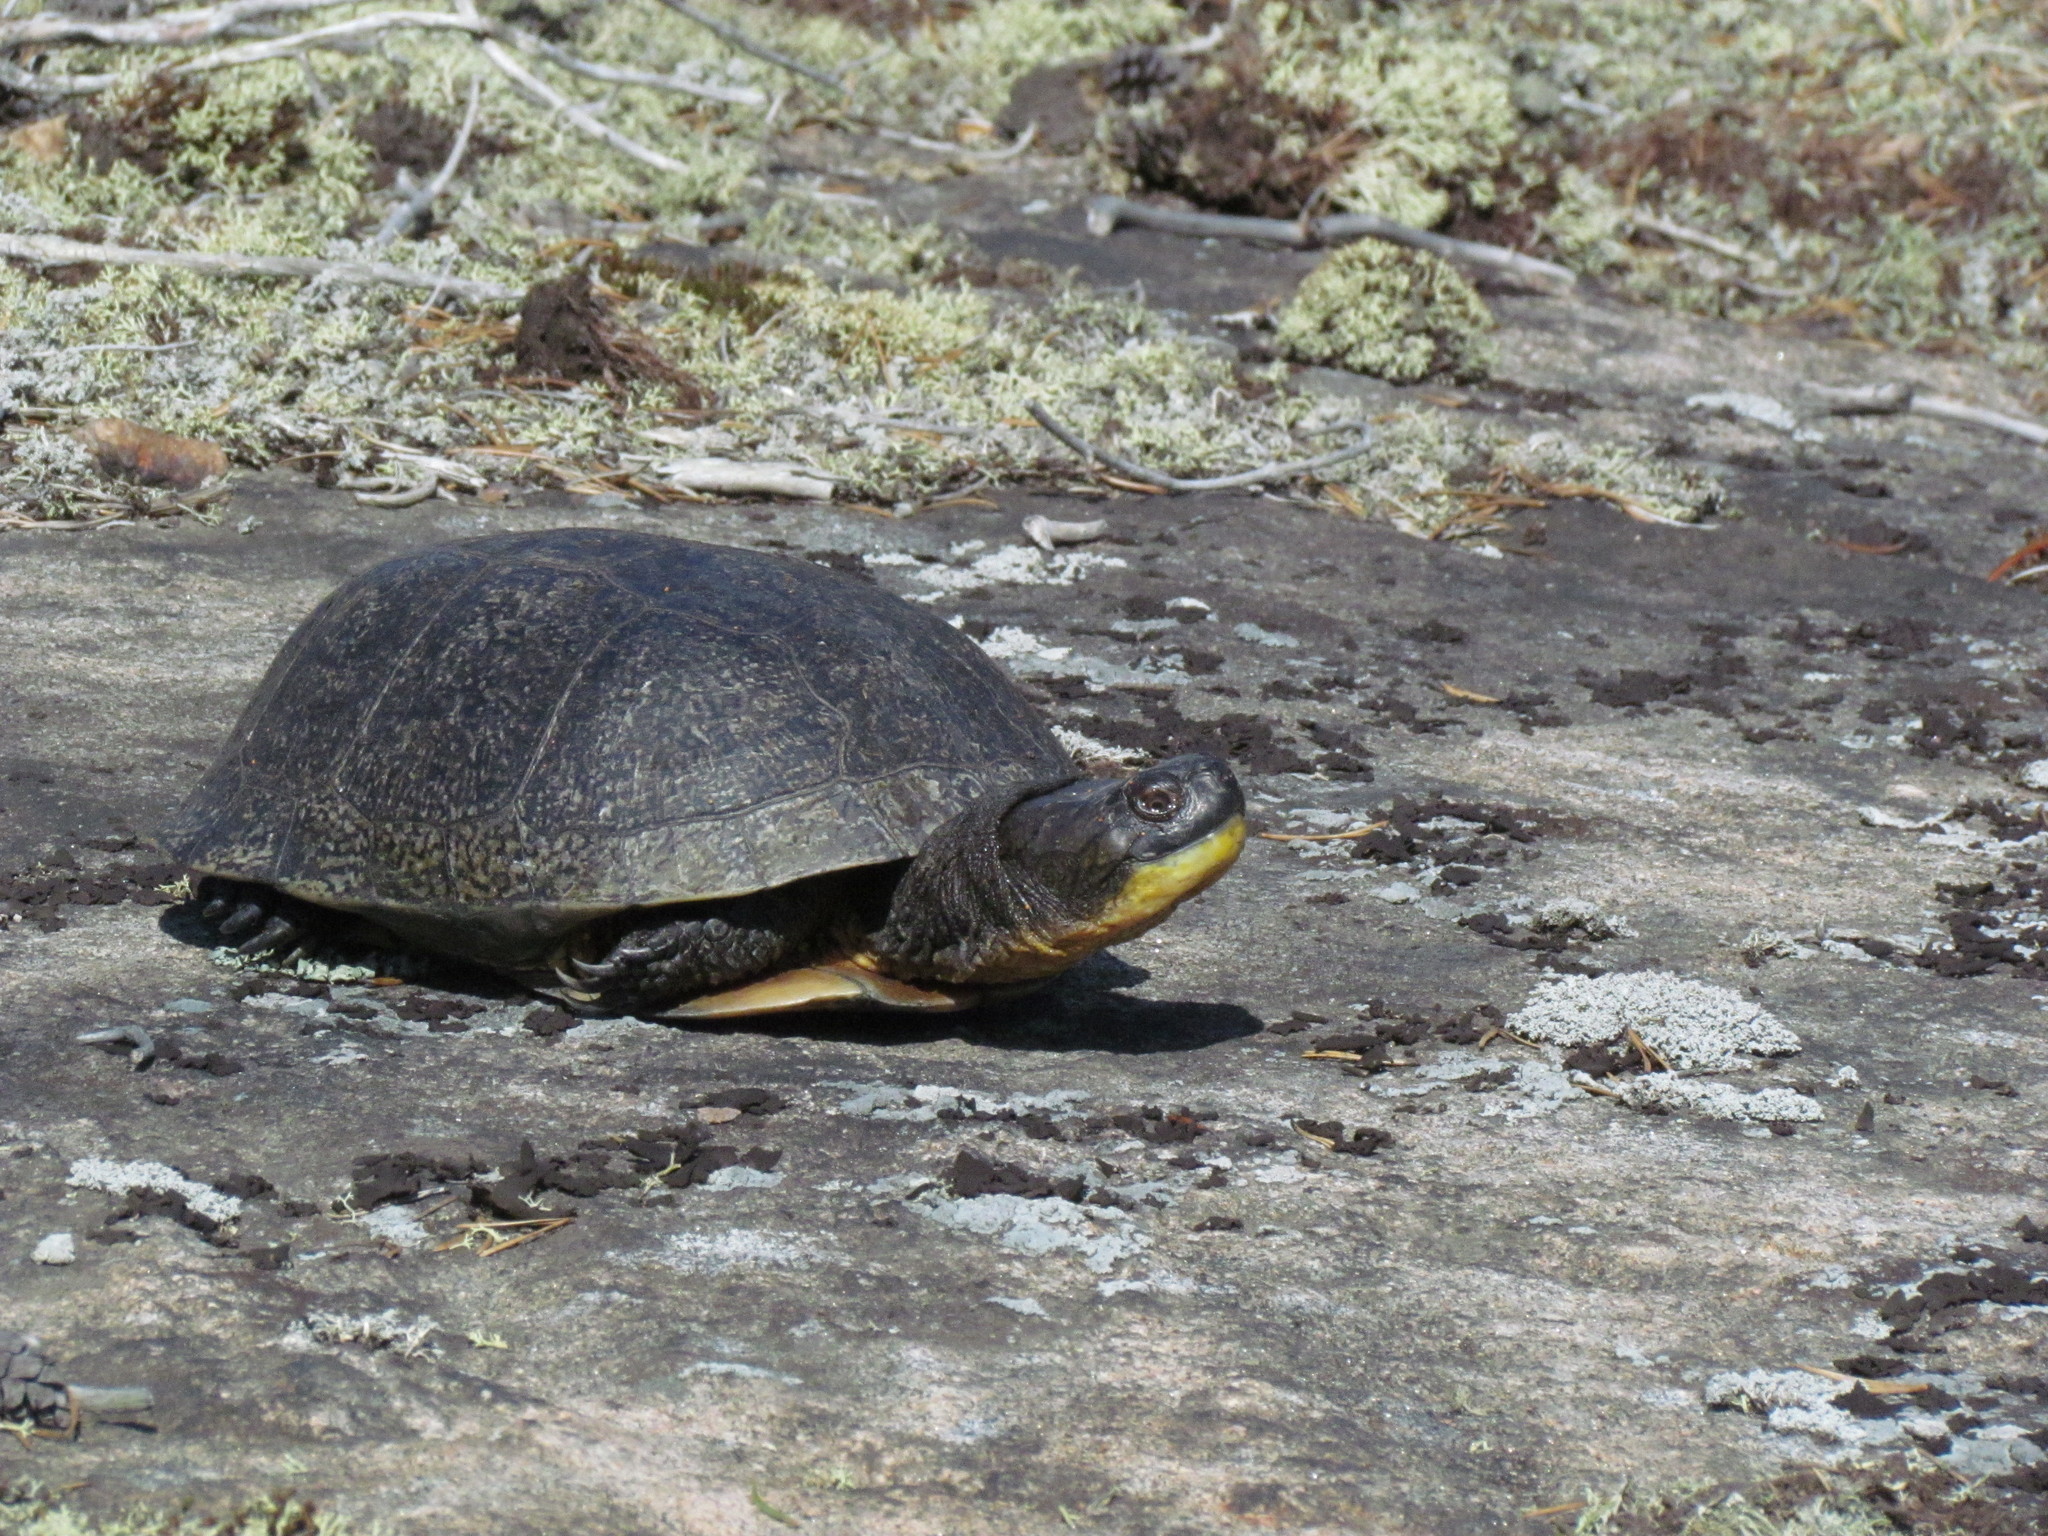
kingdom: Animalia
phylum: Chordata
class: Testudines
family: Emydidae
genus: Emys
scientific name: Emys blandingii
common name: Blanding's turtle
